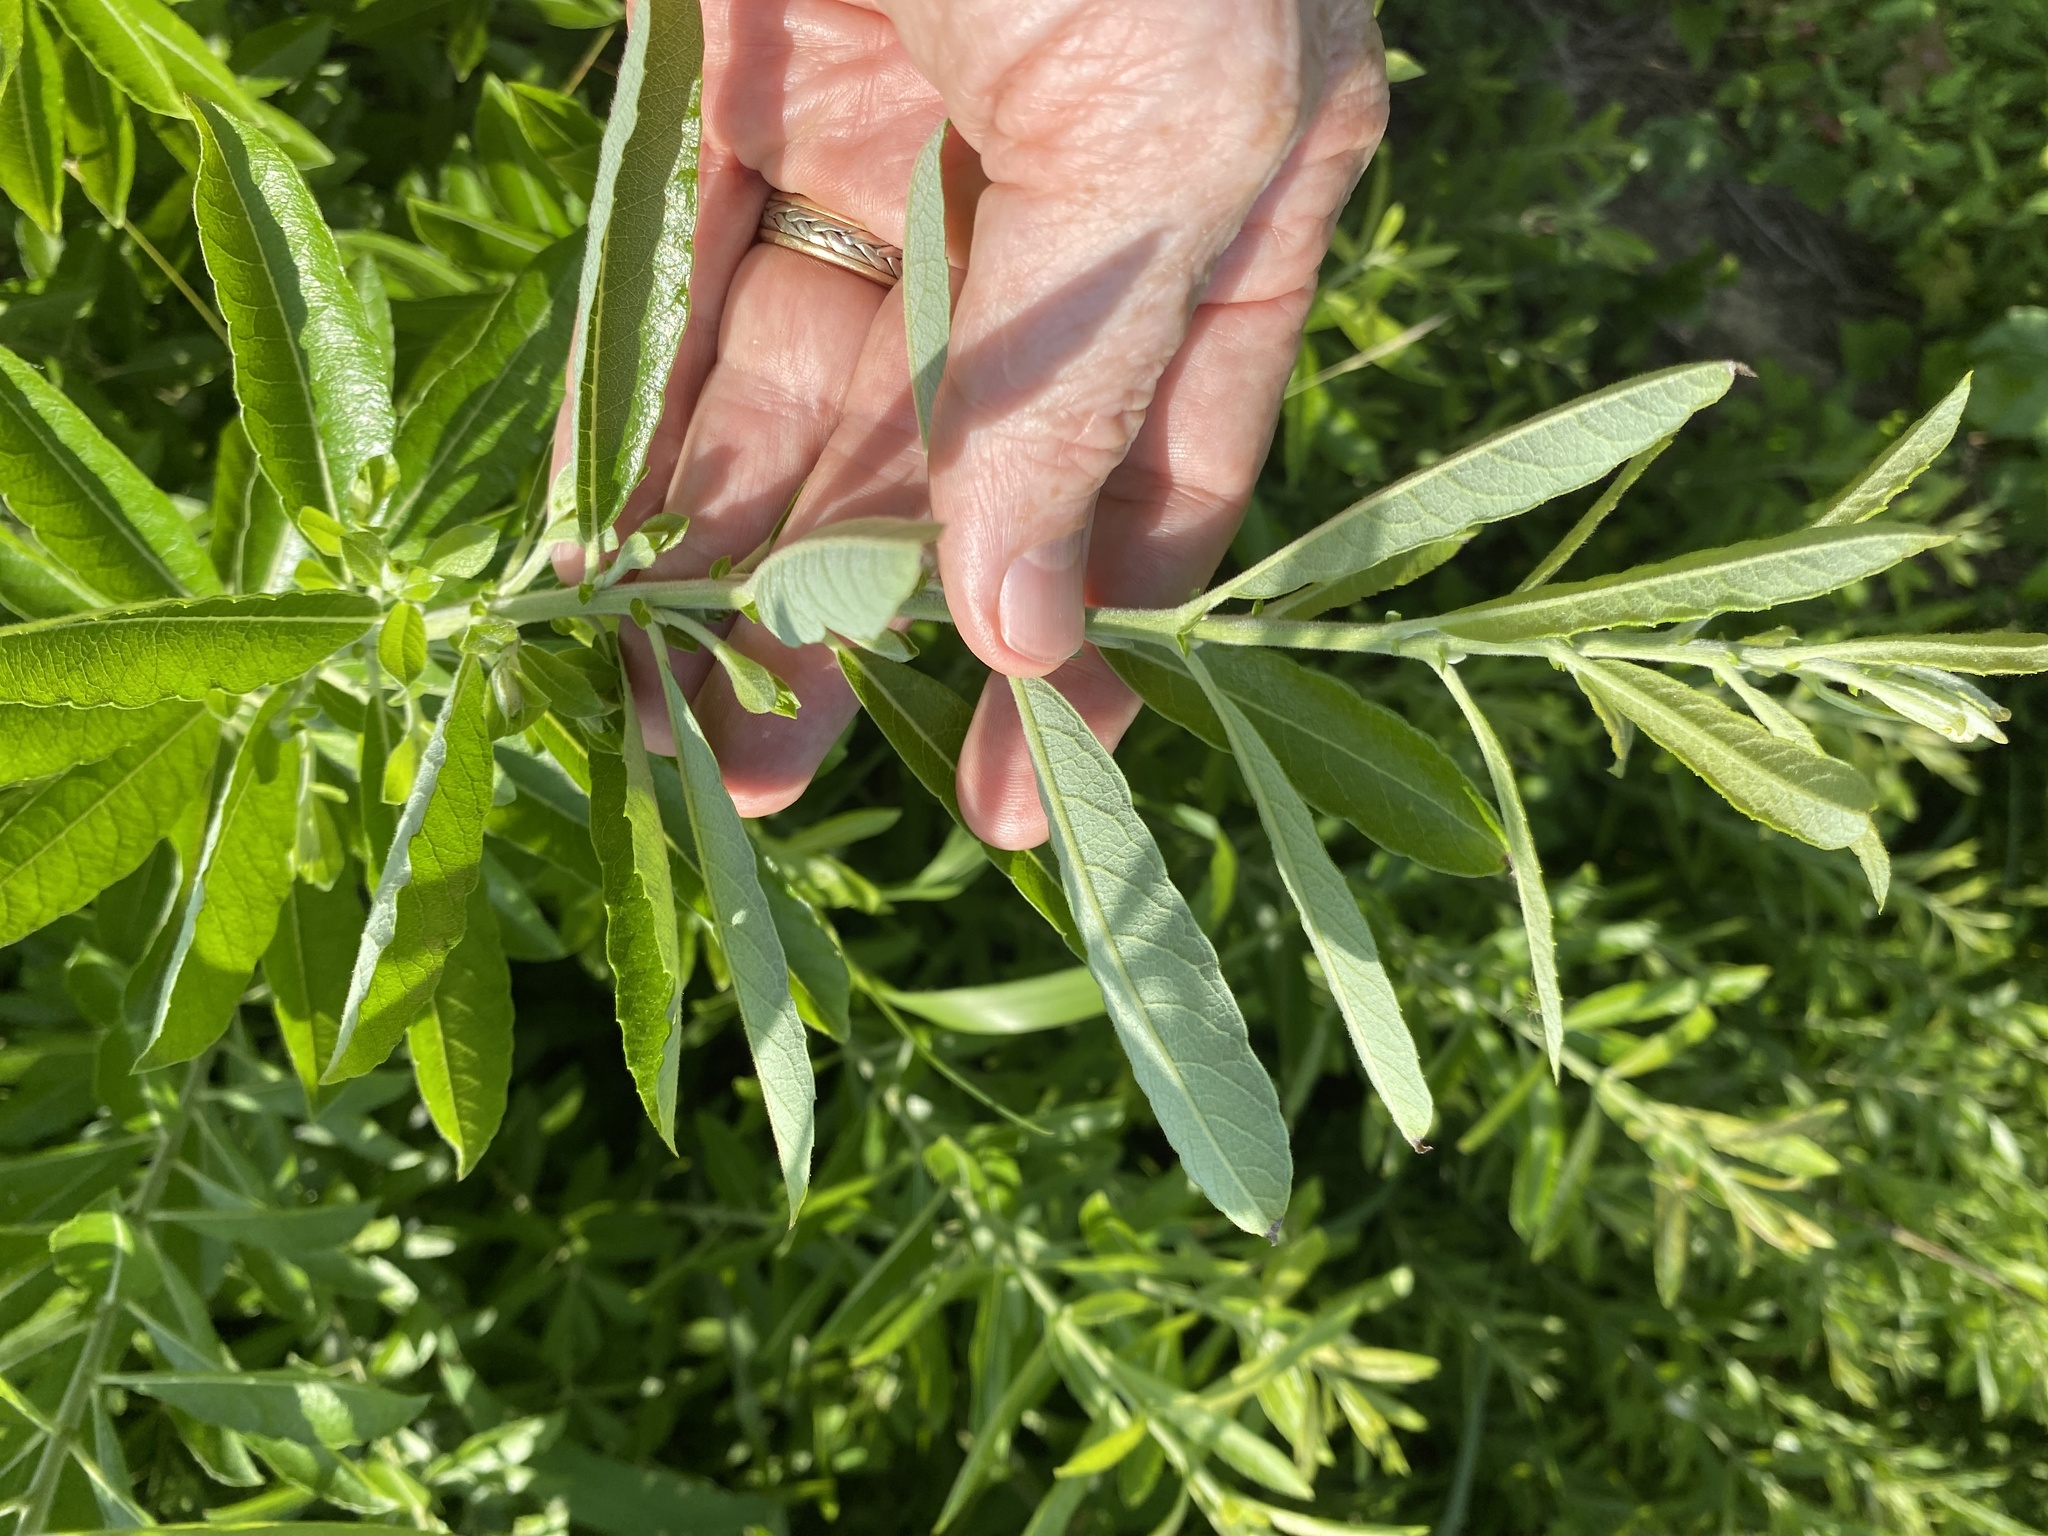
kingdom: Plantae
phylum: Tracheophyta
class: Magnoliopsida
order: Malpighiales
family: Salicaceae
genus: Salix
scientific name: Salix humilis
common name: Prairie willow
